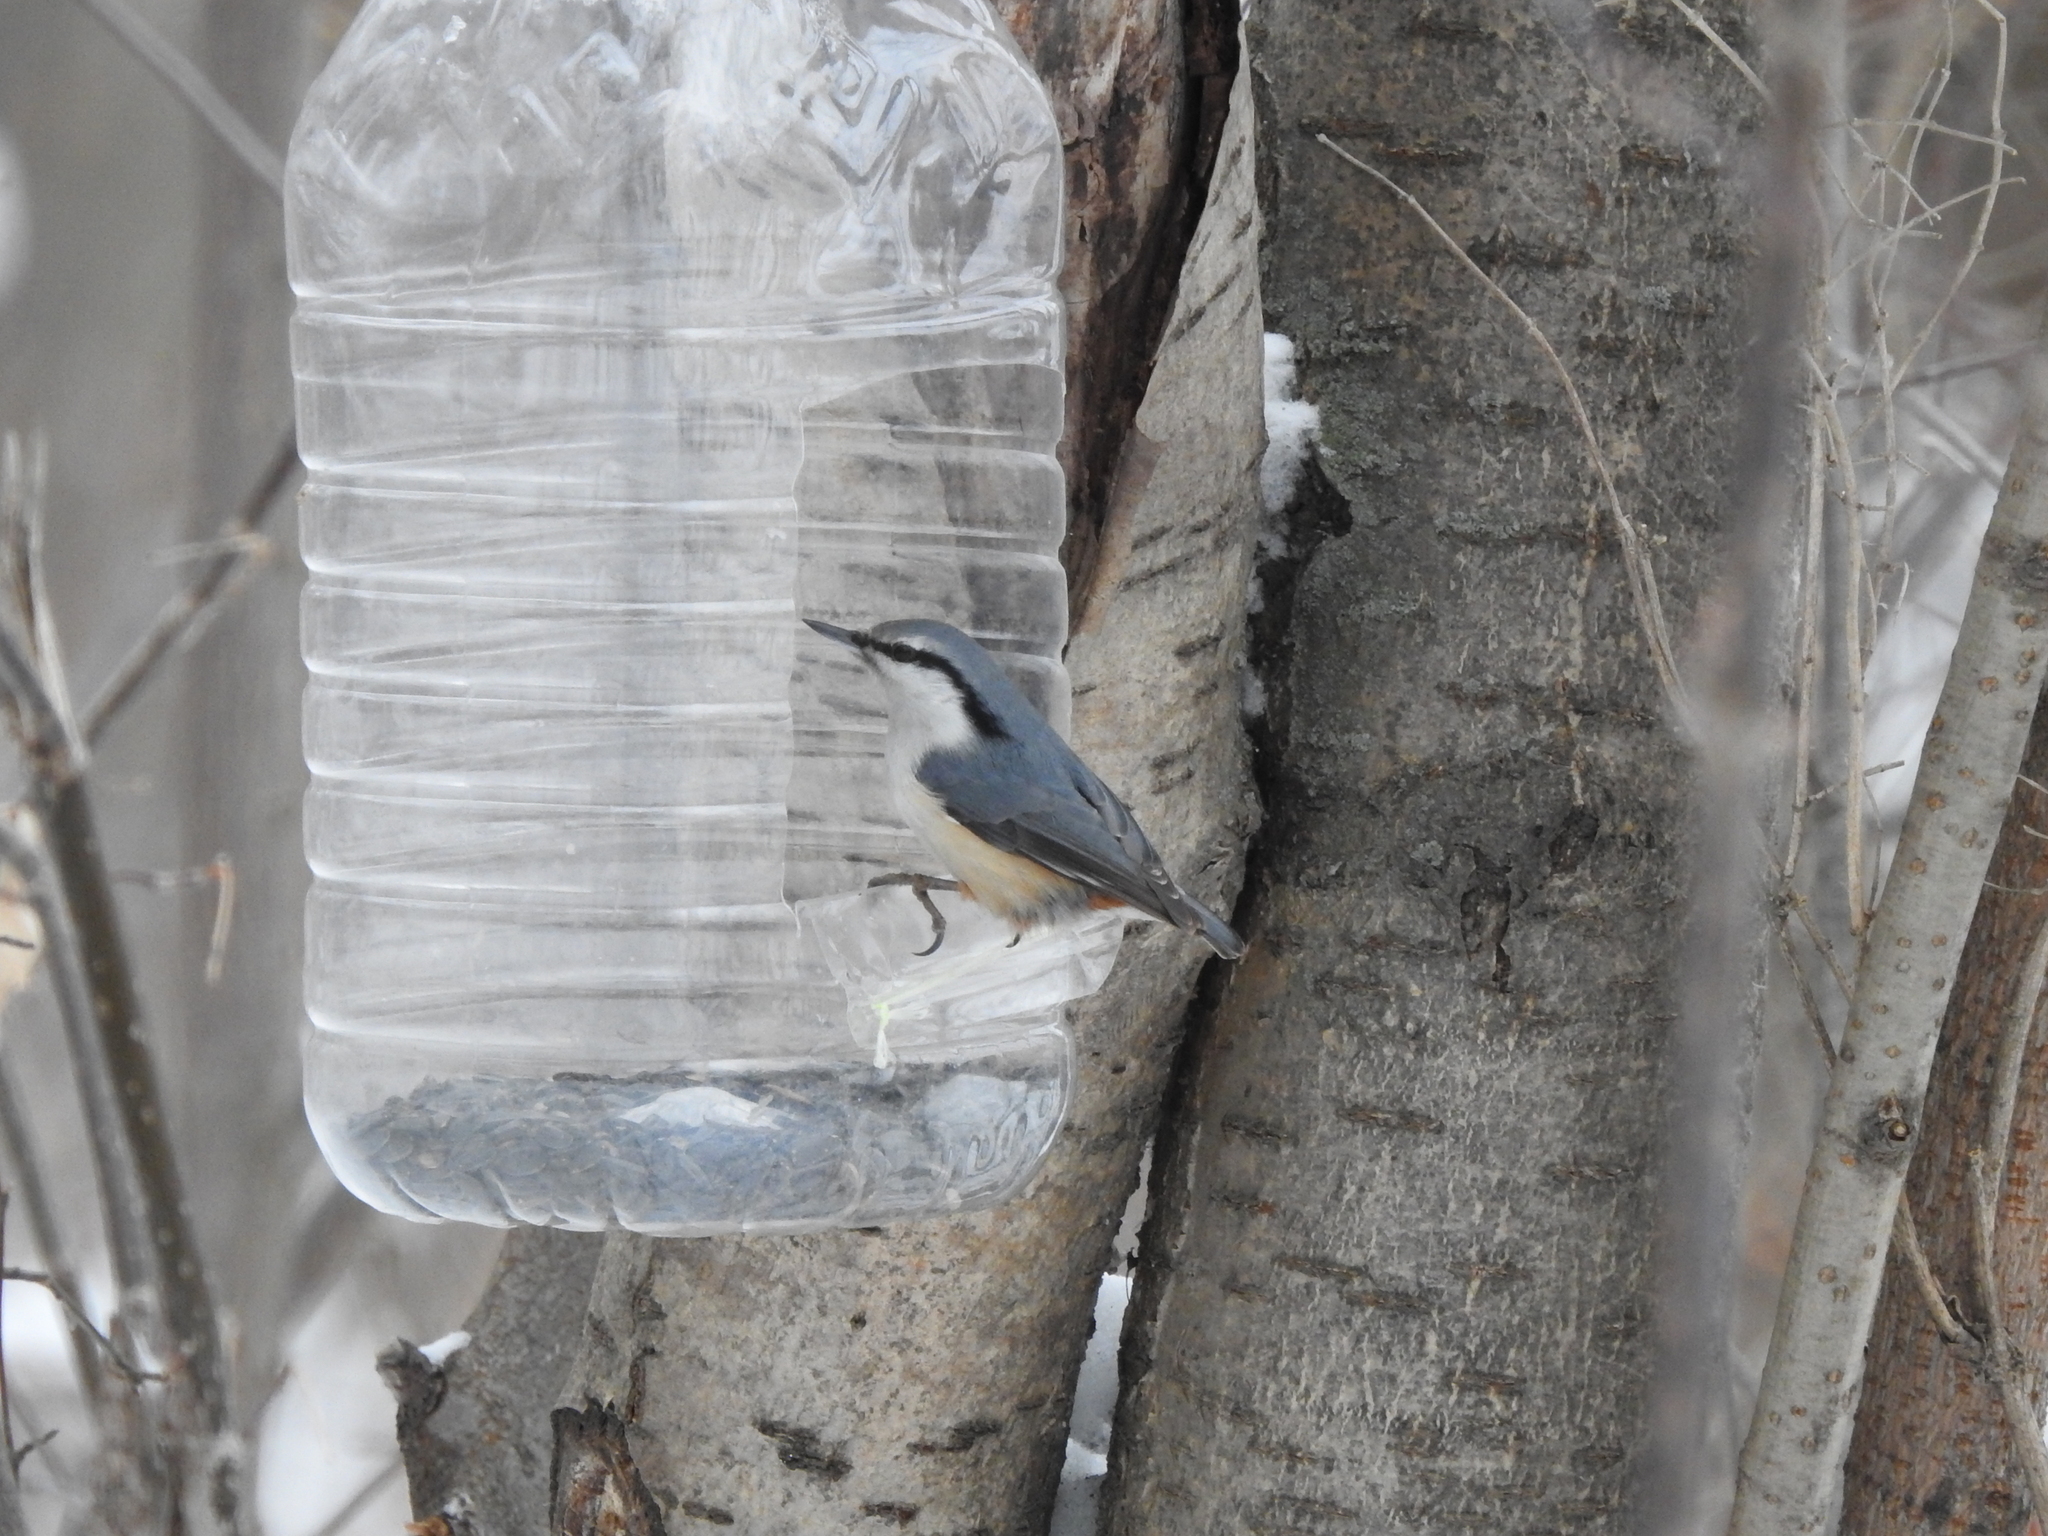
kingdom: Animalia
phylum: Chordata
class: Aves
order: Passeriformes
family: Sittidae
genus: Sitta
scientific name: Sitta europaea
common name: Eurasian nuthatch
